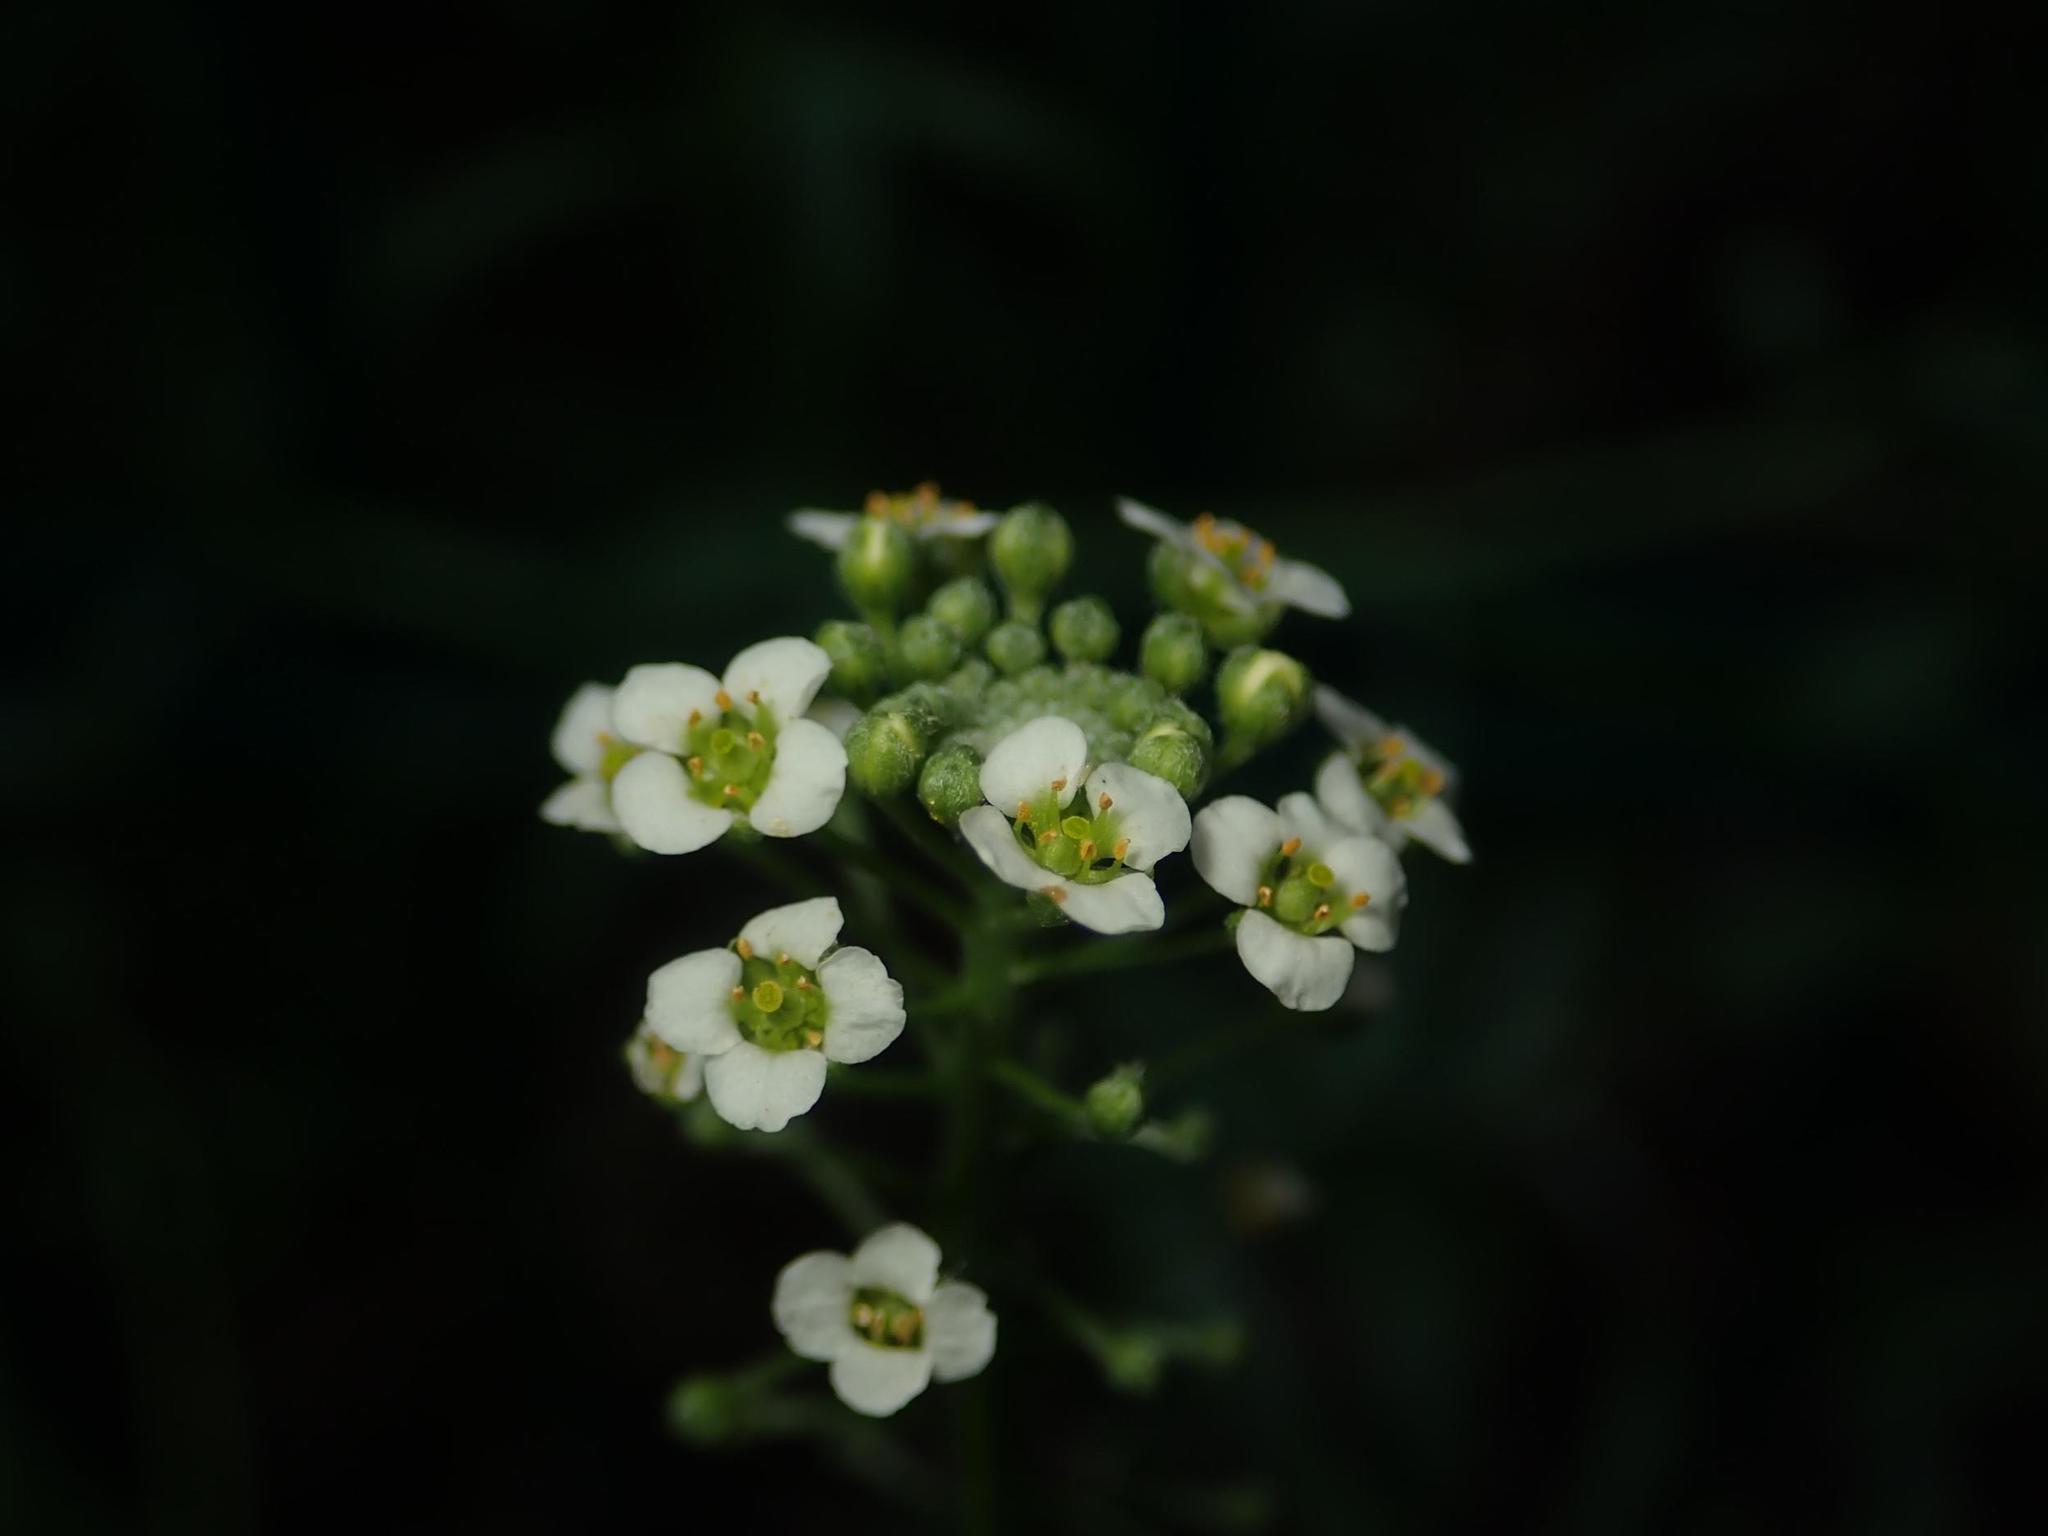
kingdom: Plantae
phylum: Tracheophyta
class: Magnoliopsida
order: Brassicales
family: Brassicaceae
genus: Lobularia
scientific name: Lobularia maritima
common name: Sweet alison
